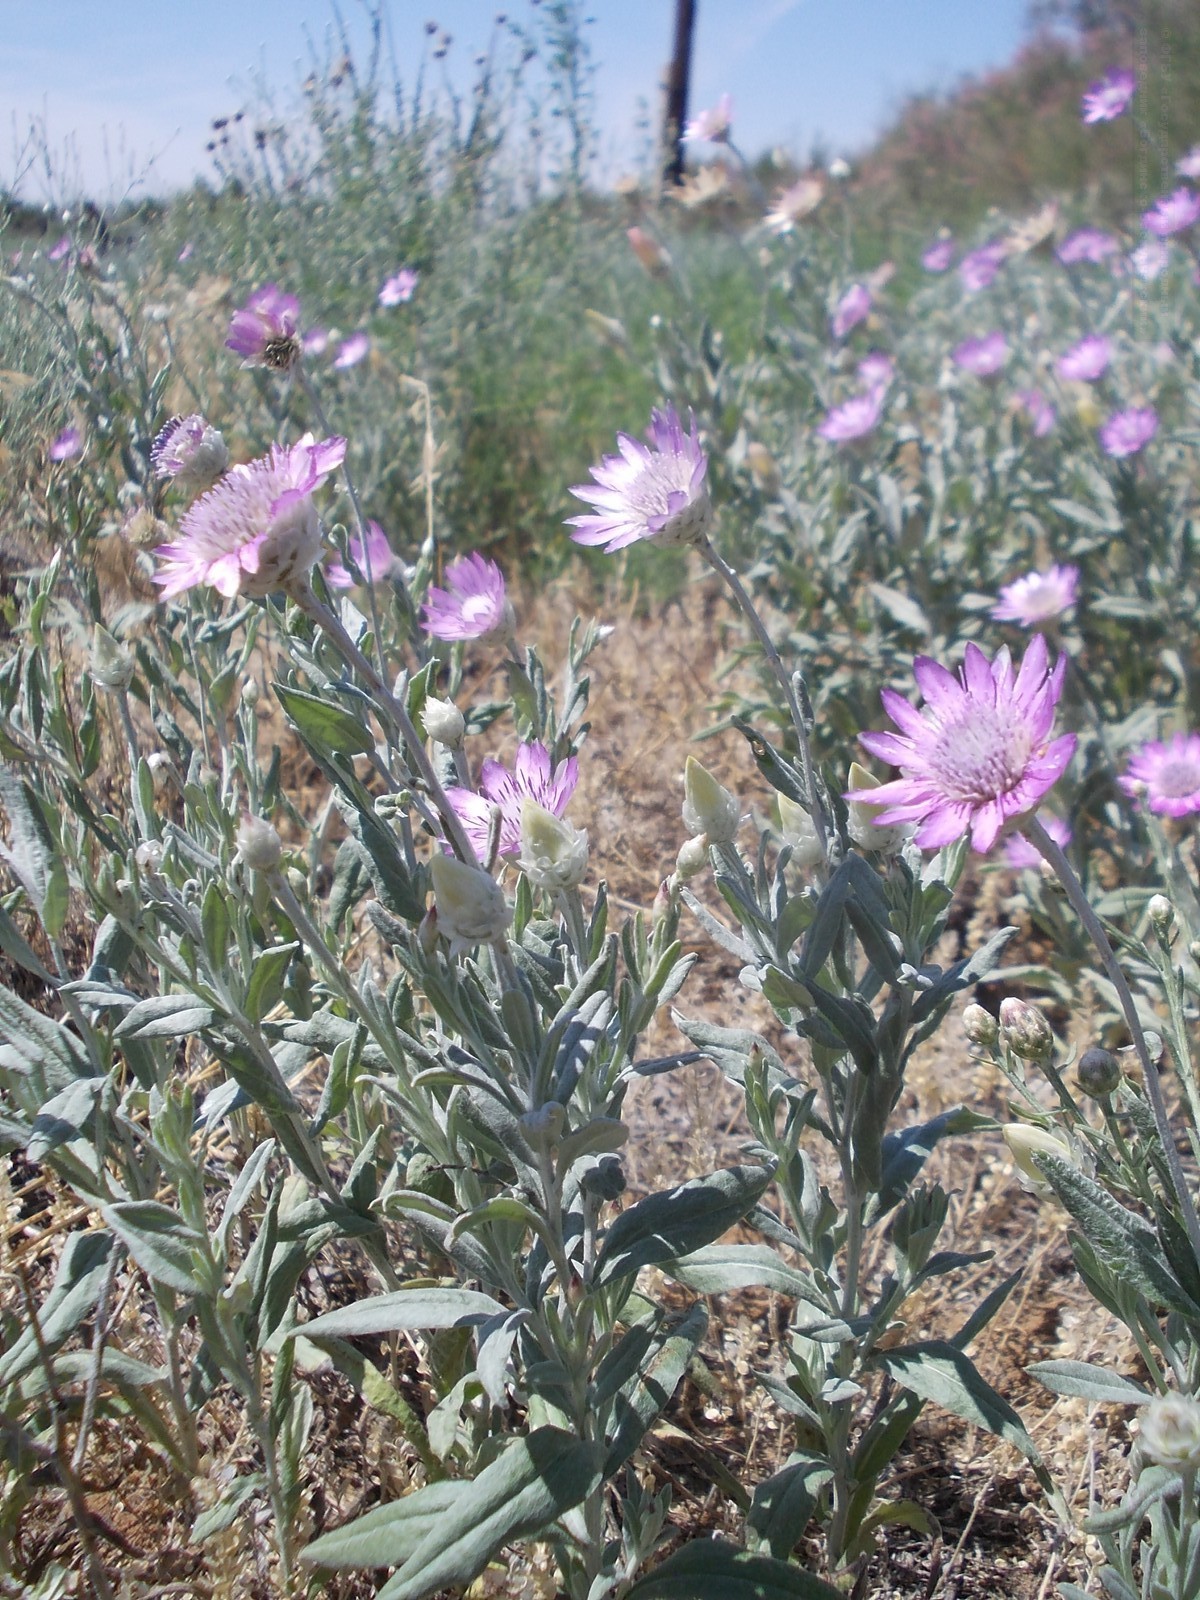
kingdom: Plantae
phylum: Tracheophyta
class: Magnoliopsida
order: Asterales
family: Asteraceae
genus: Xeranthemum
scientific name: Xeranthemum annuum
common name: Immortelle
